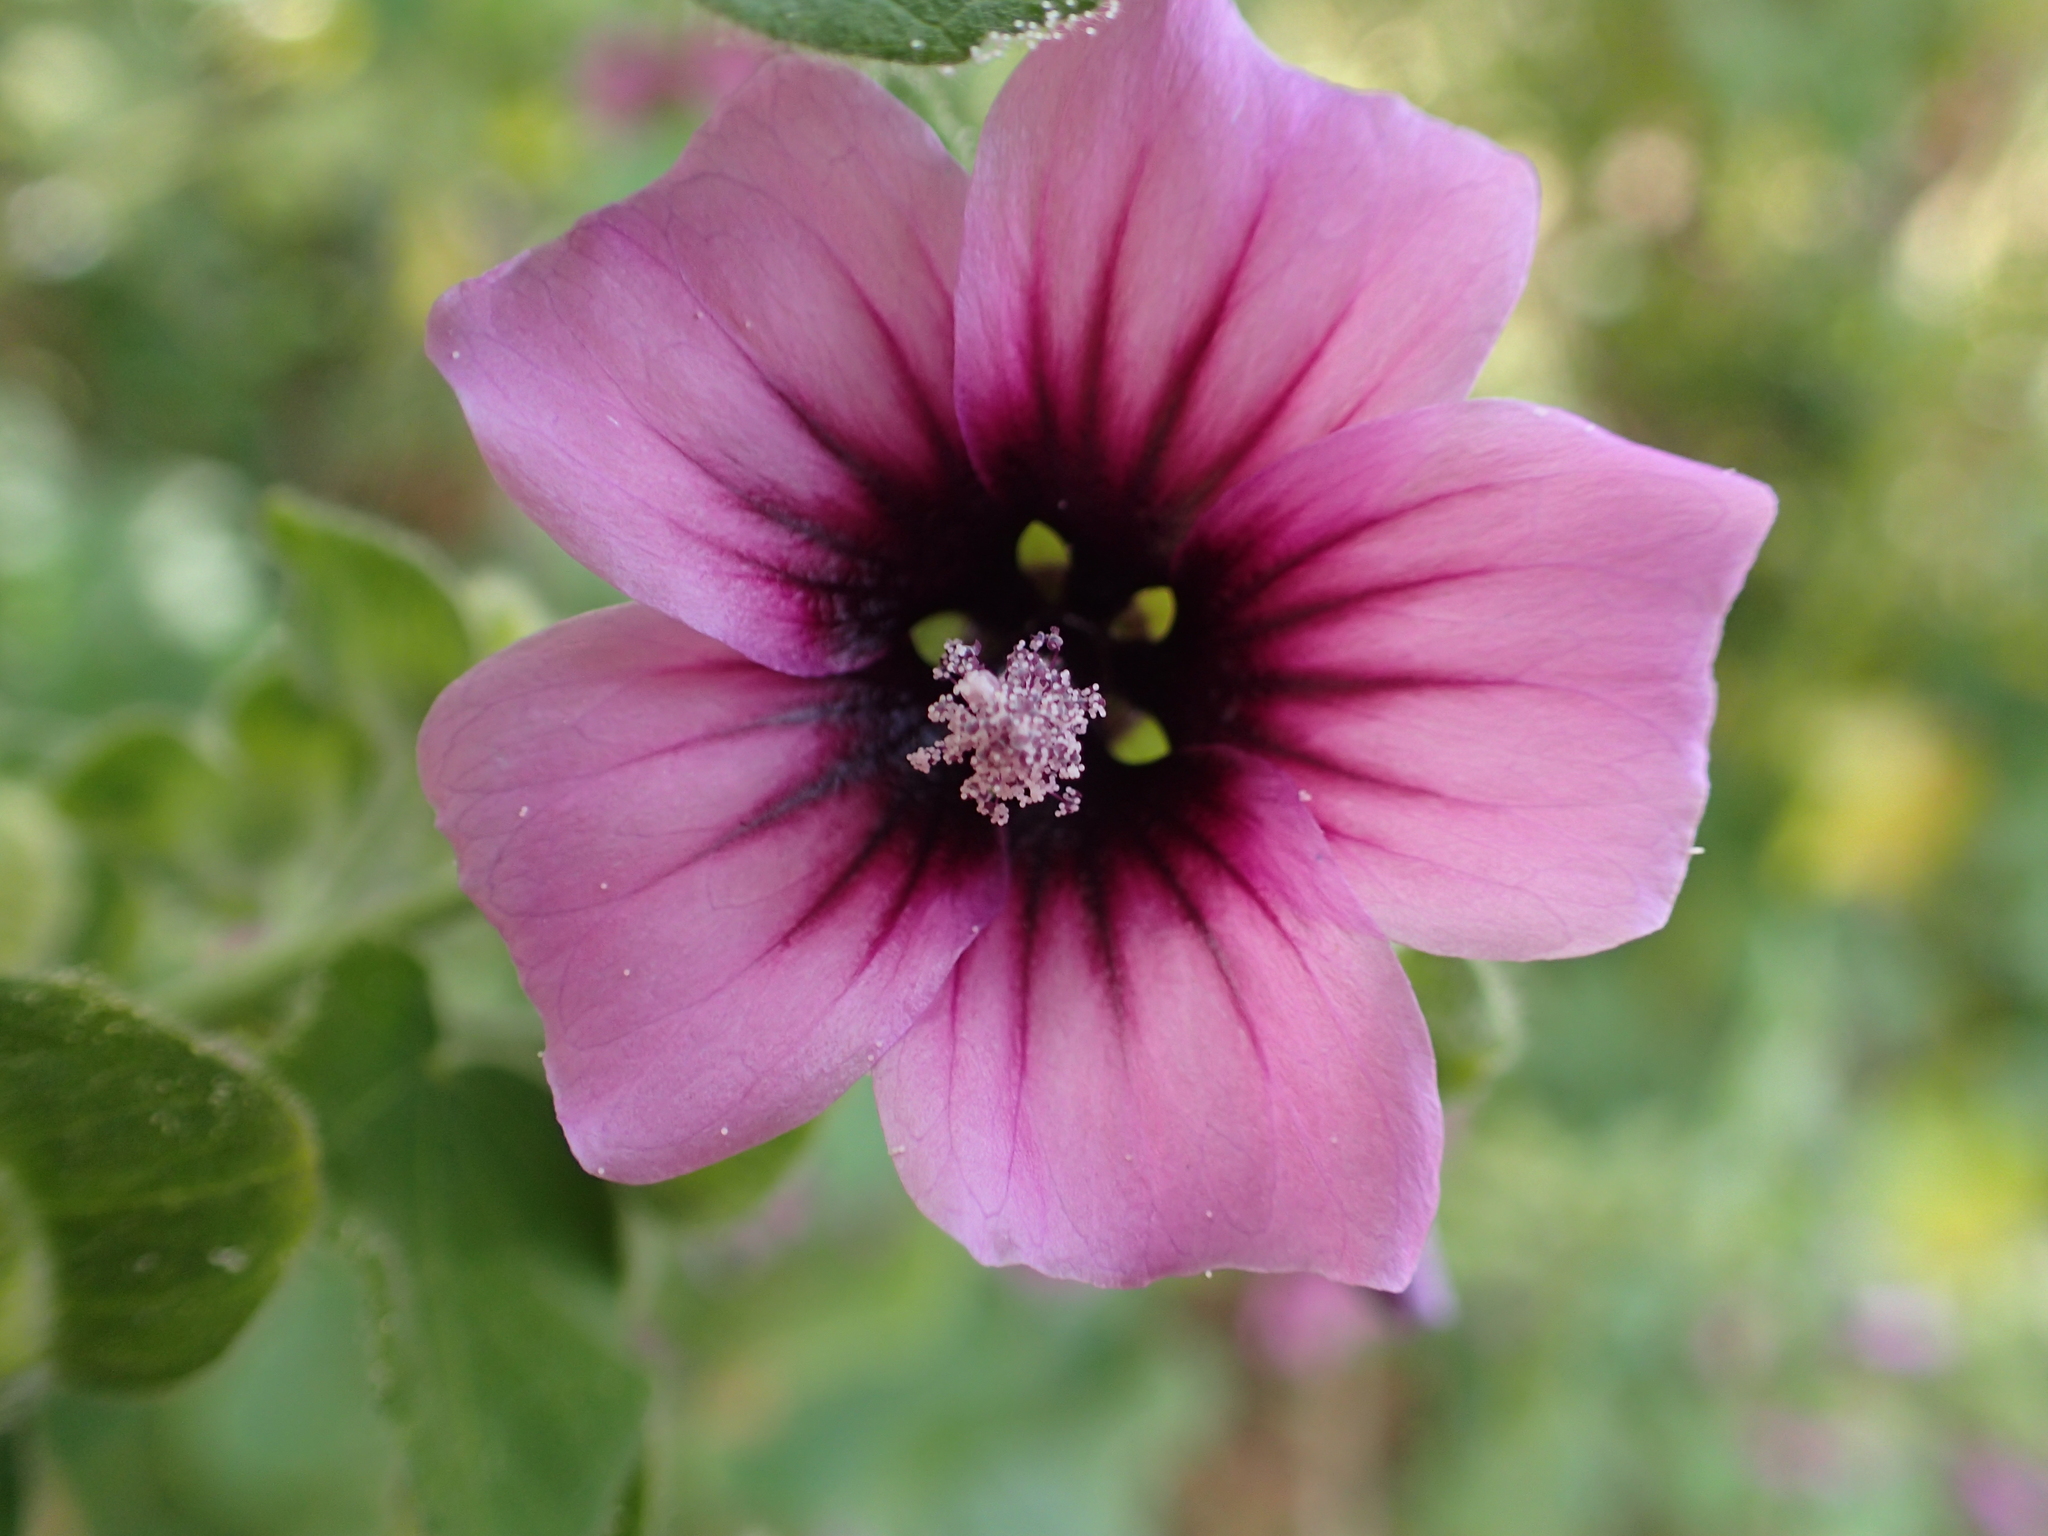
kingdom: Plantae
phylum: Tracheophyta
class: Magnoliopsida
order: Malvales
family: Malvaceae
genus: Malva
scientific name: Malva arborea
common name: Tree mallow
